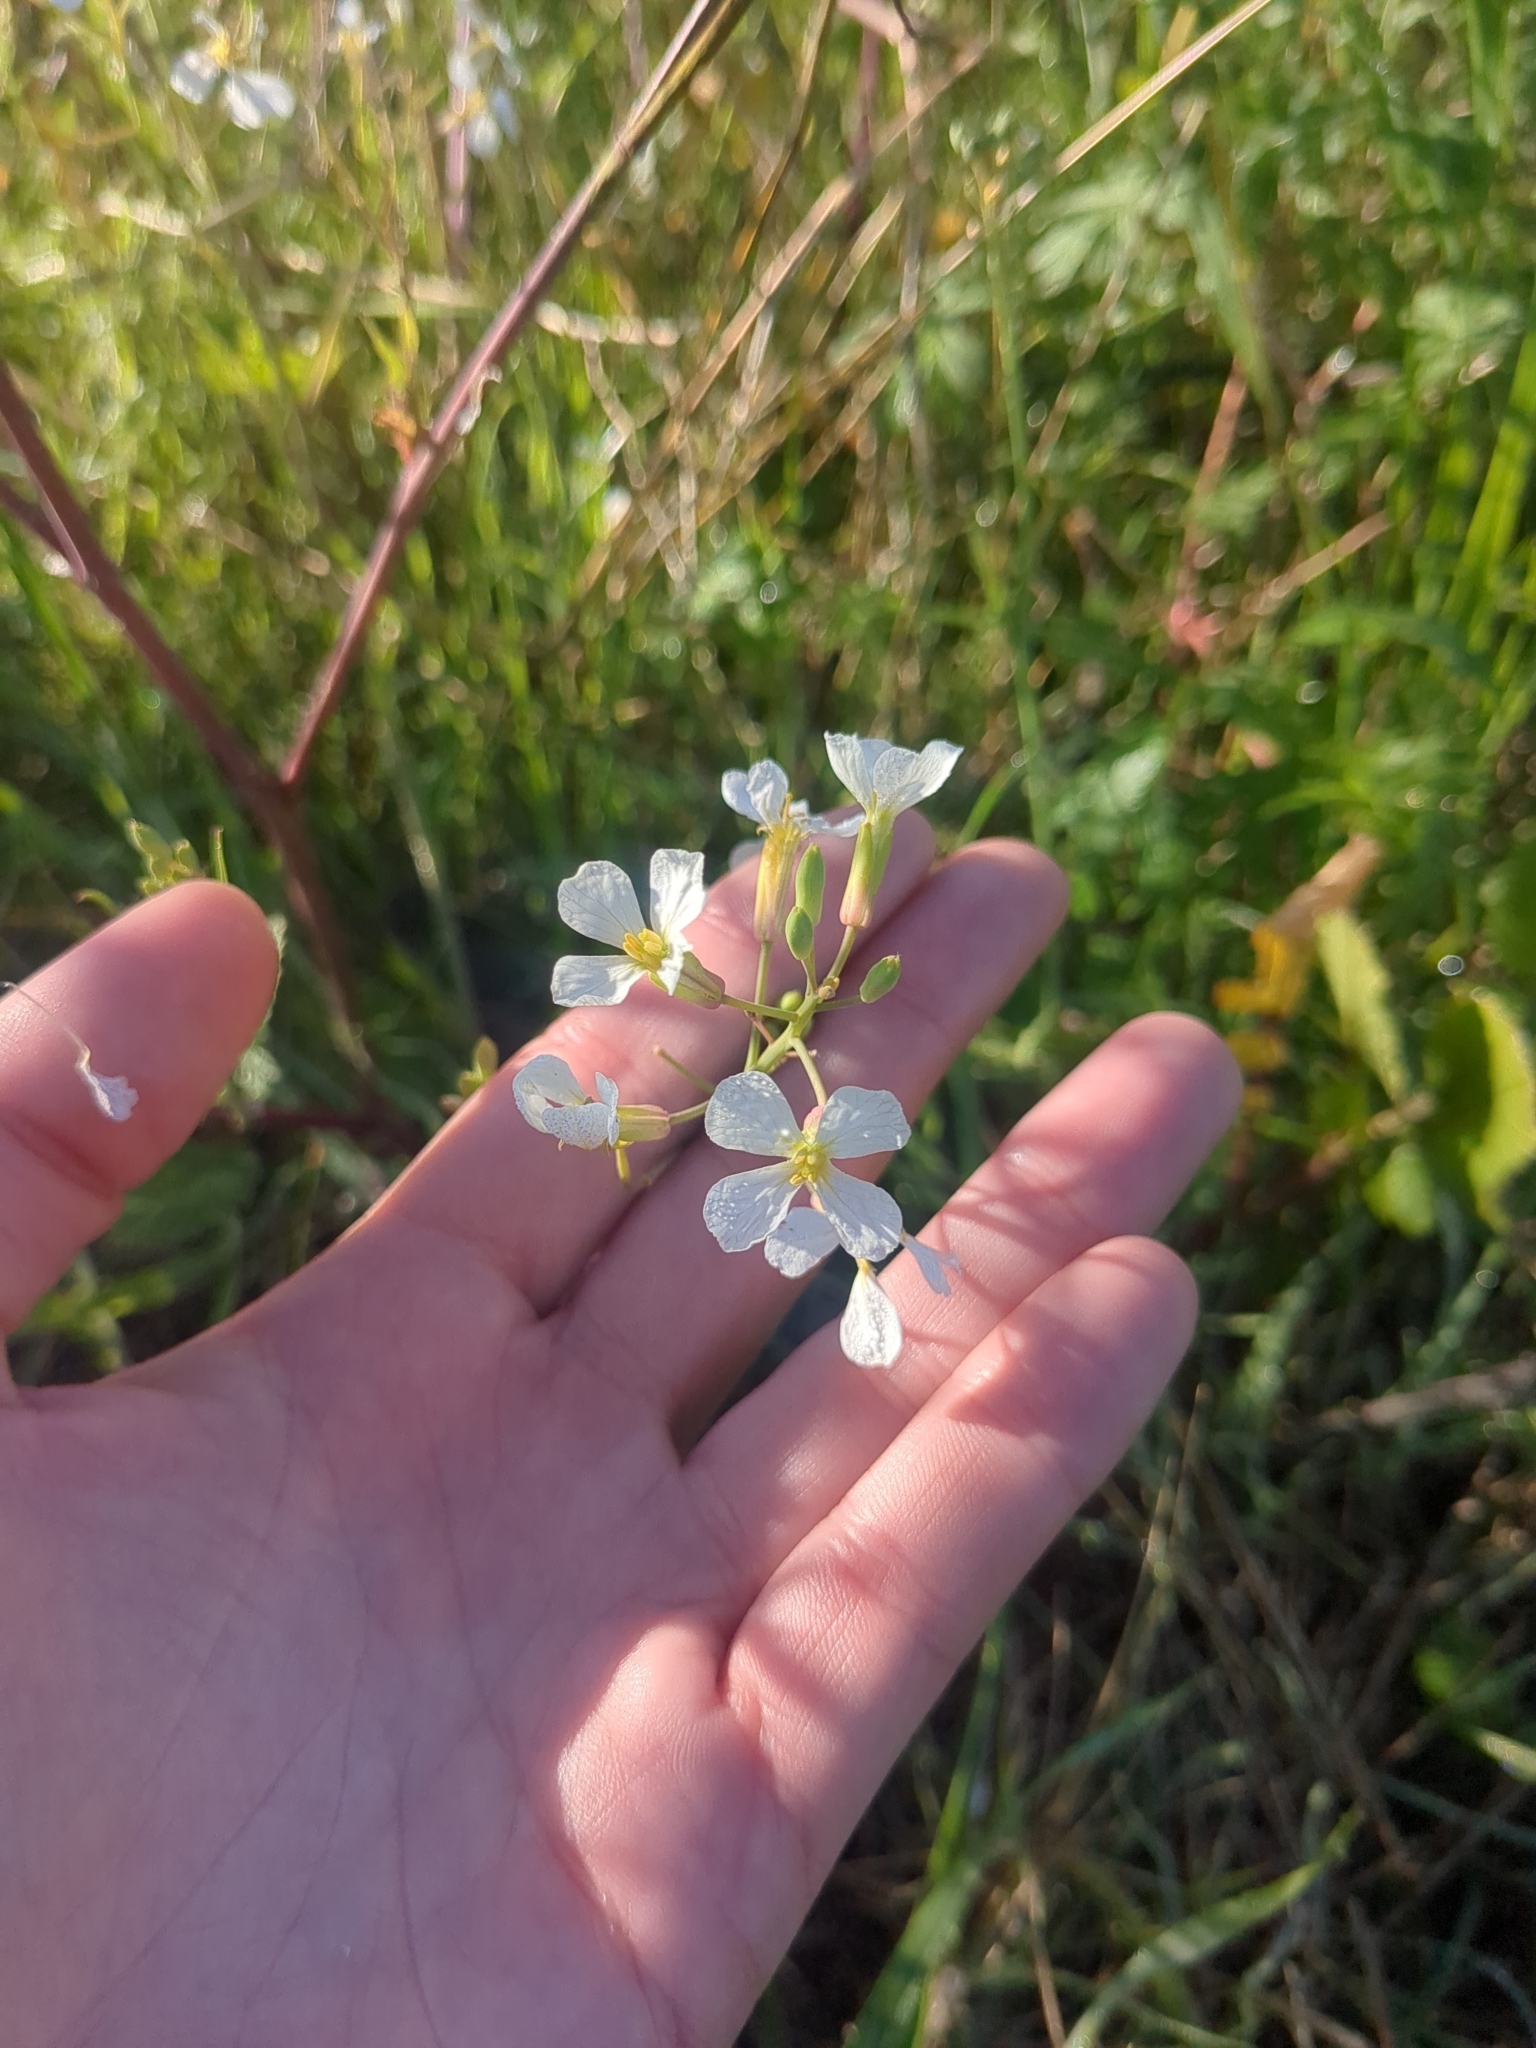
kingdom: Plantae
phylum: Tracheophyta
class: Magnoliopsida
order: Brassicales
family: Brassicaceae
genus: Raphanus
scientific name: Raphanus raphanistrum
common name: Wild radish
